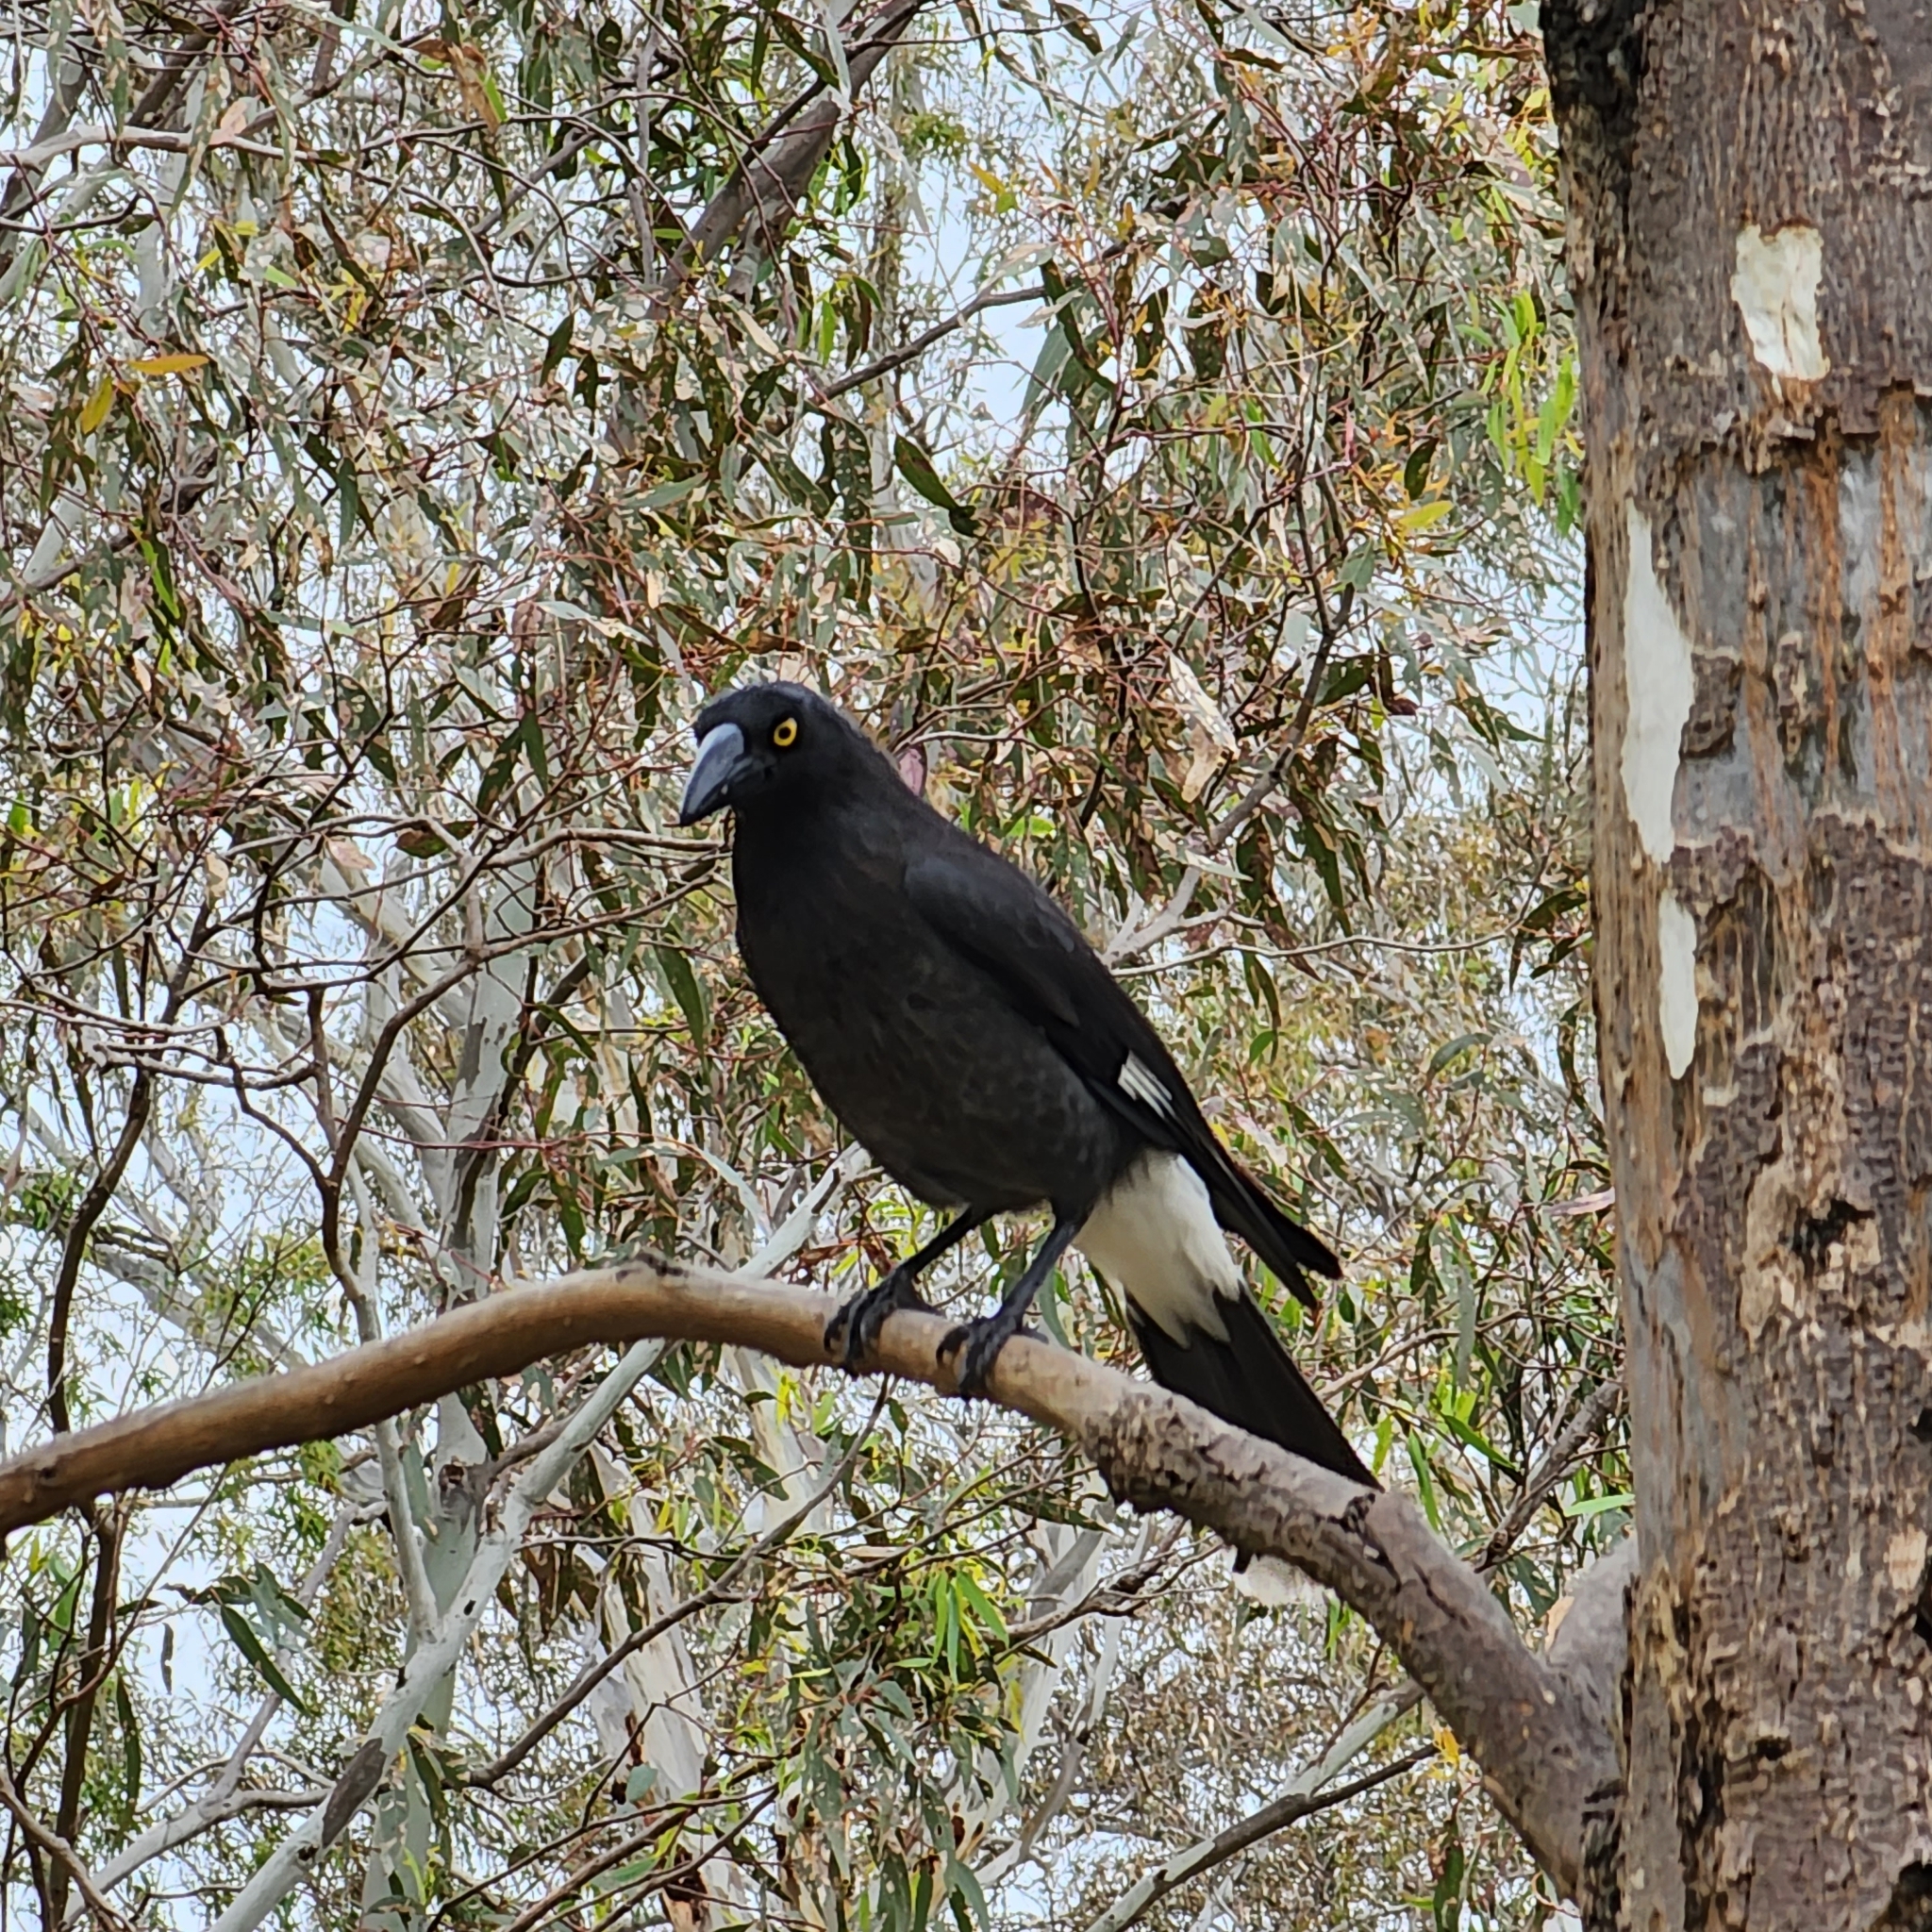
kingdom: Animalia
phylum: Chordata
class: Aves
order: Passeriformes
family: Cracticidae
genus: Strepera
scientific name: Strepera graculina
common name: Pied currawong
